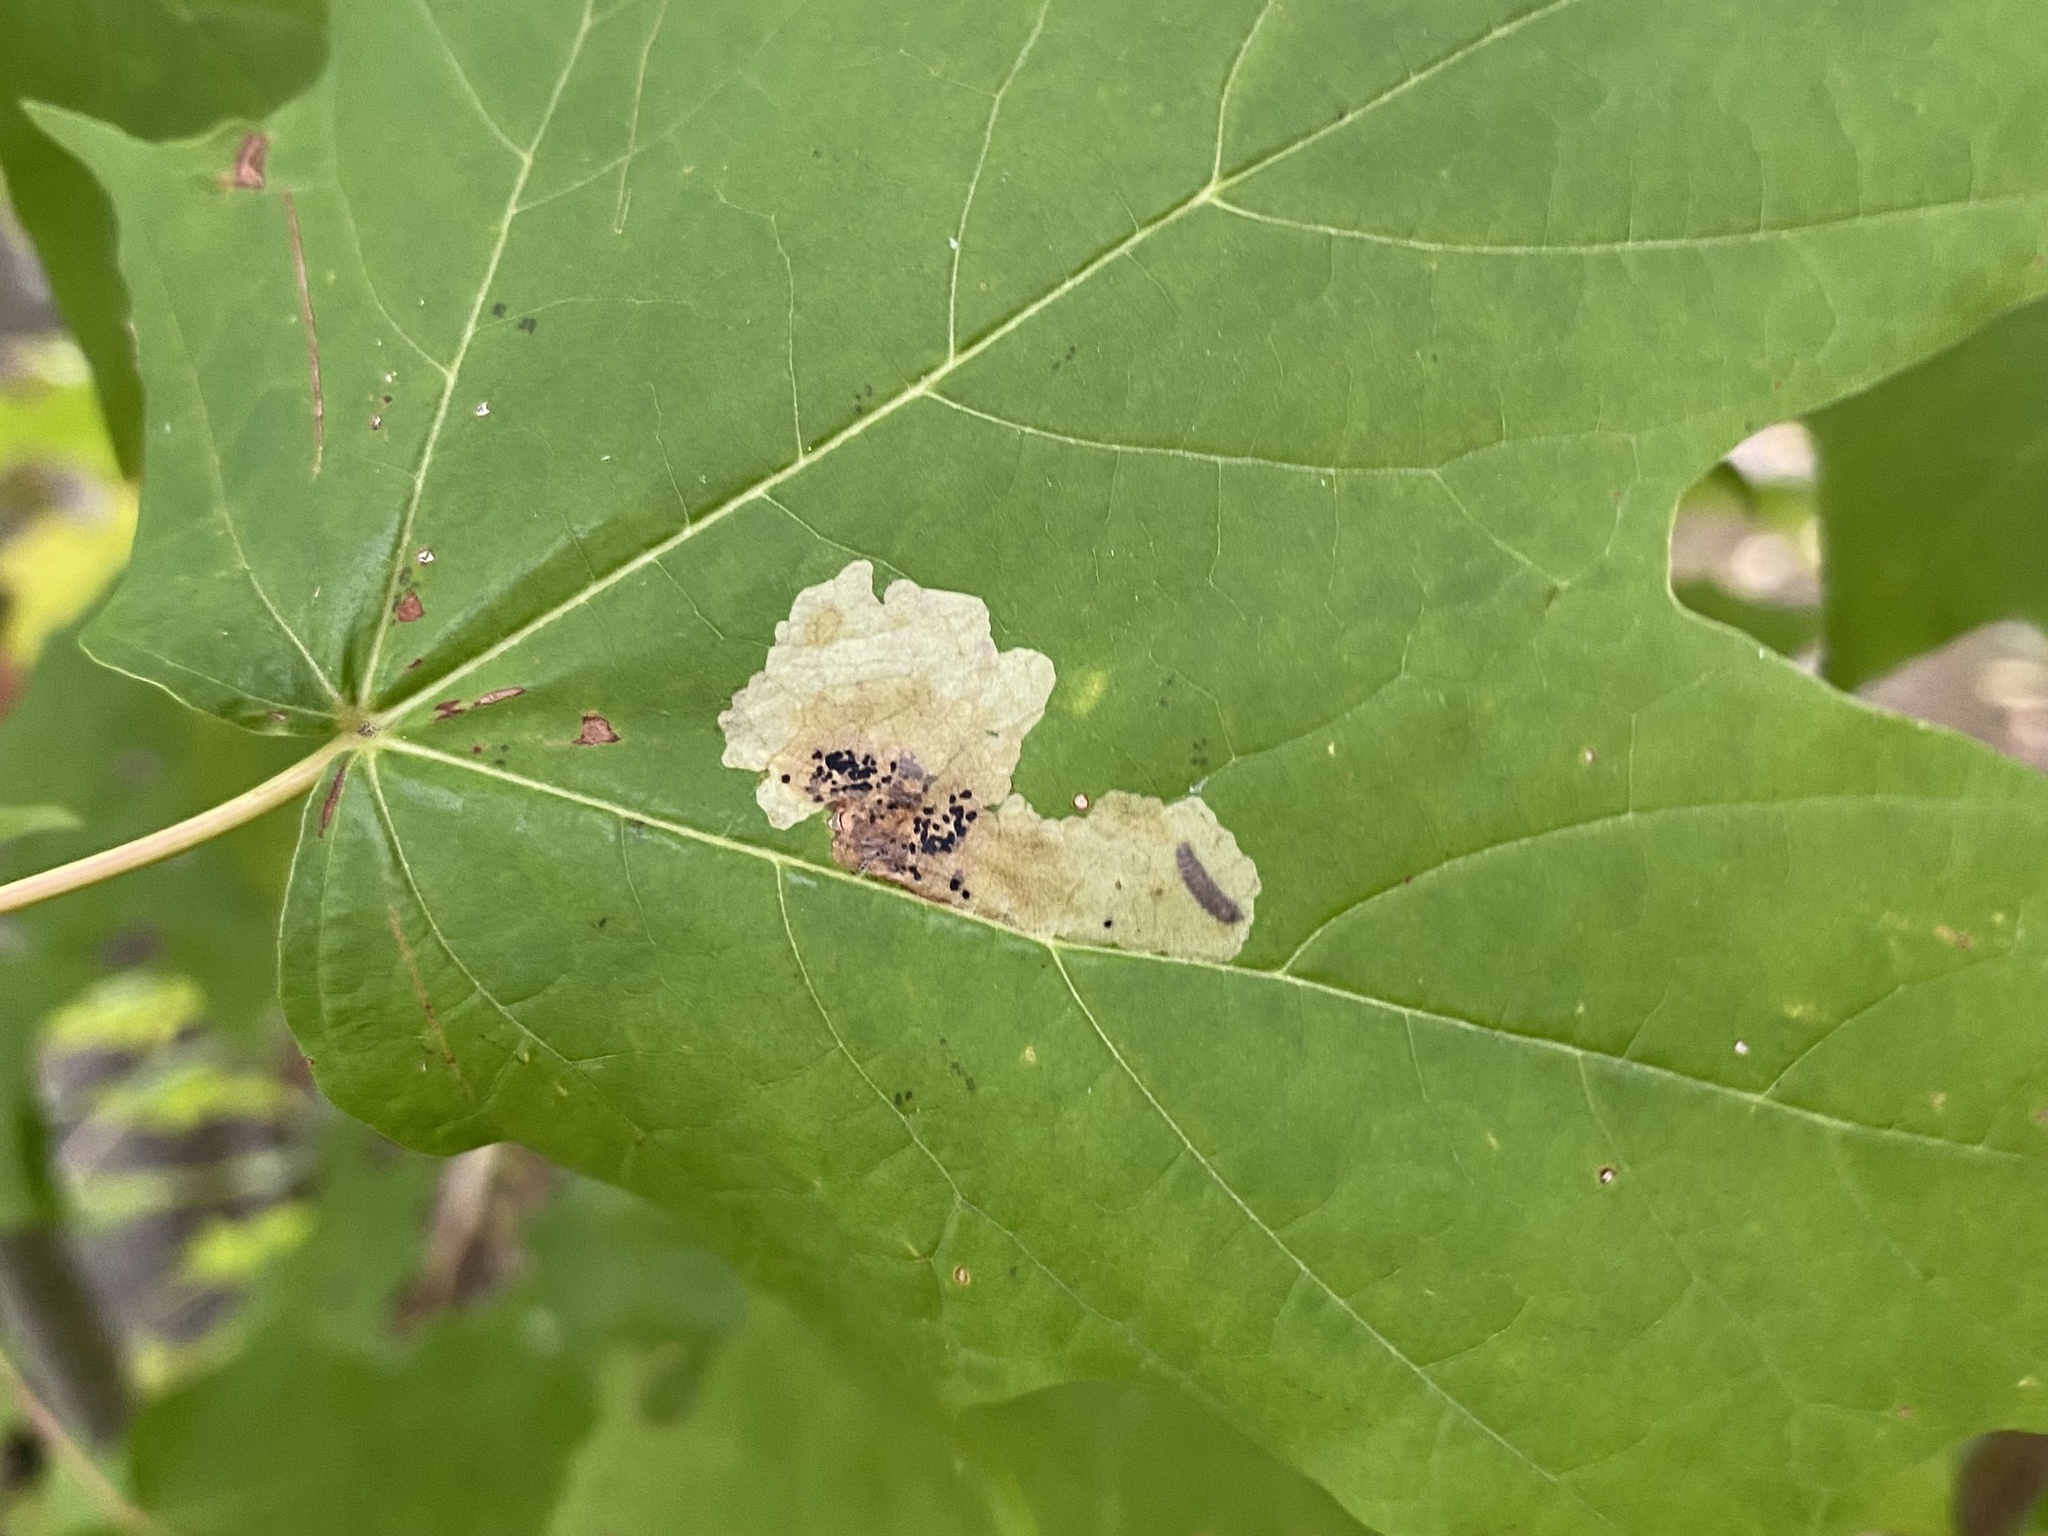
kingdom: Animalia
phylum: Arthropoda
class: Insecta
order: Lepidoptera
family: Gracillariidae
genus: Cameraria
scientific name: Cameraria aceriella
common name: Maple leafblotch miner
